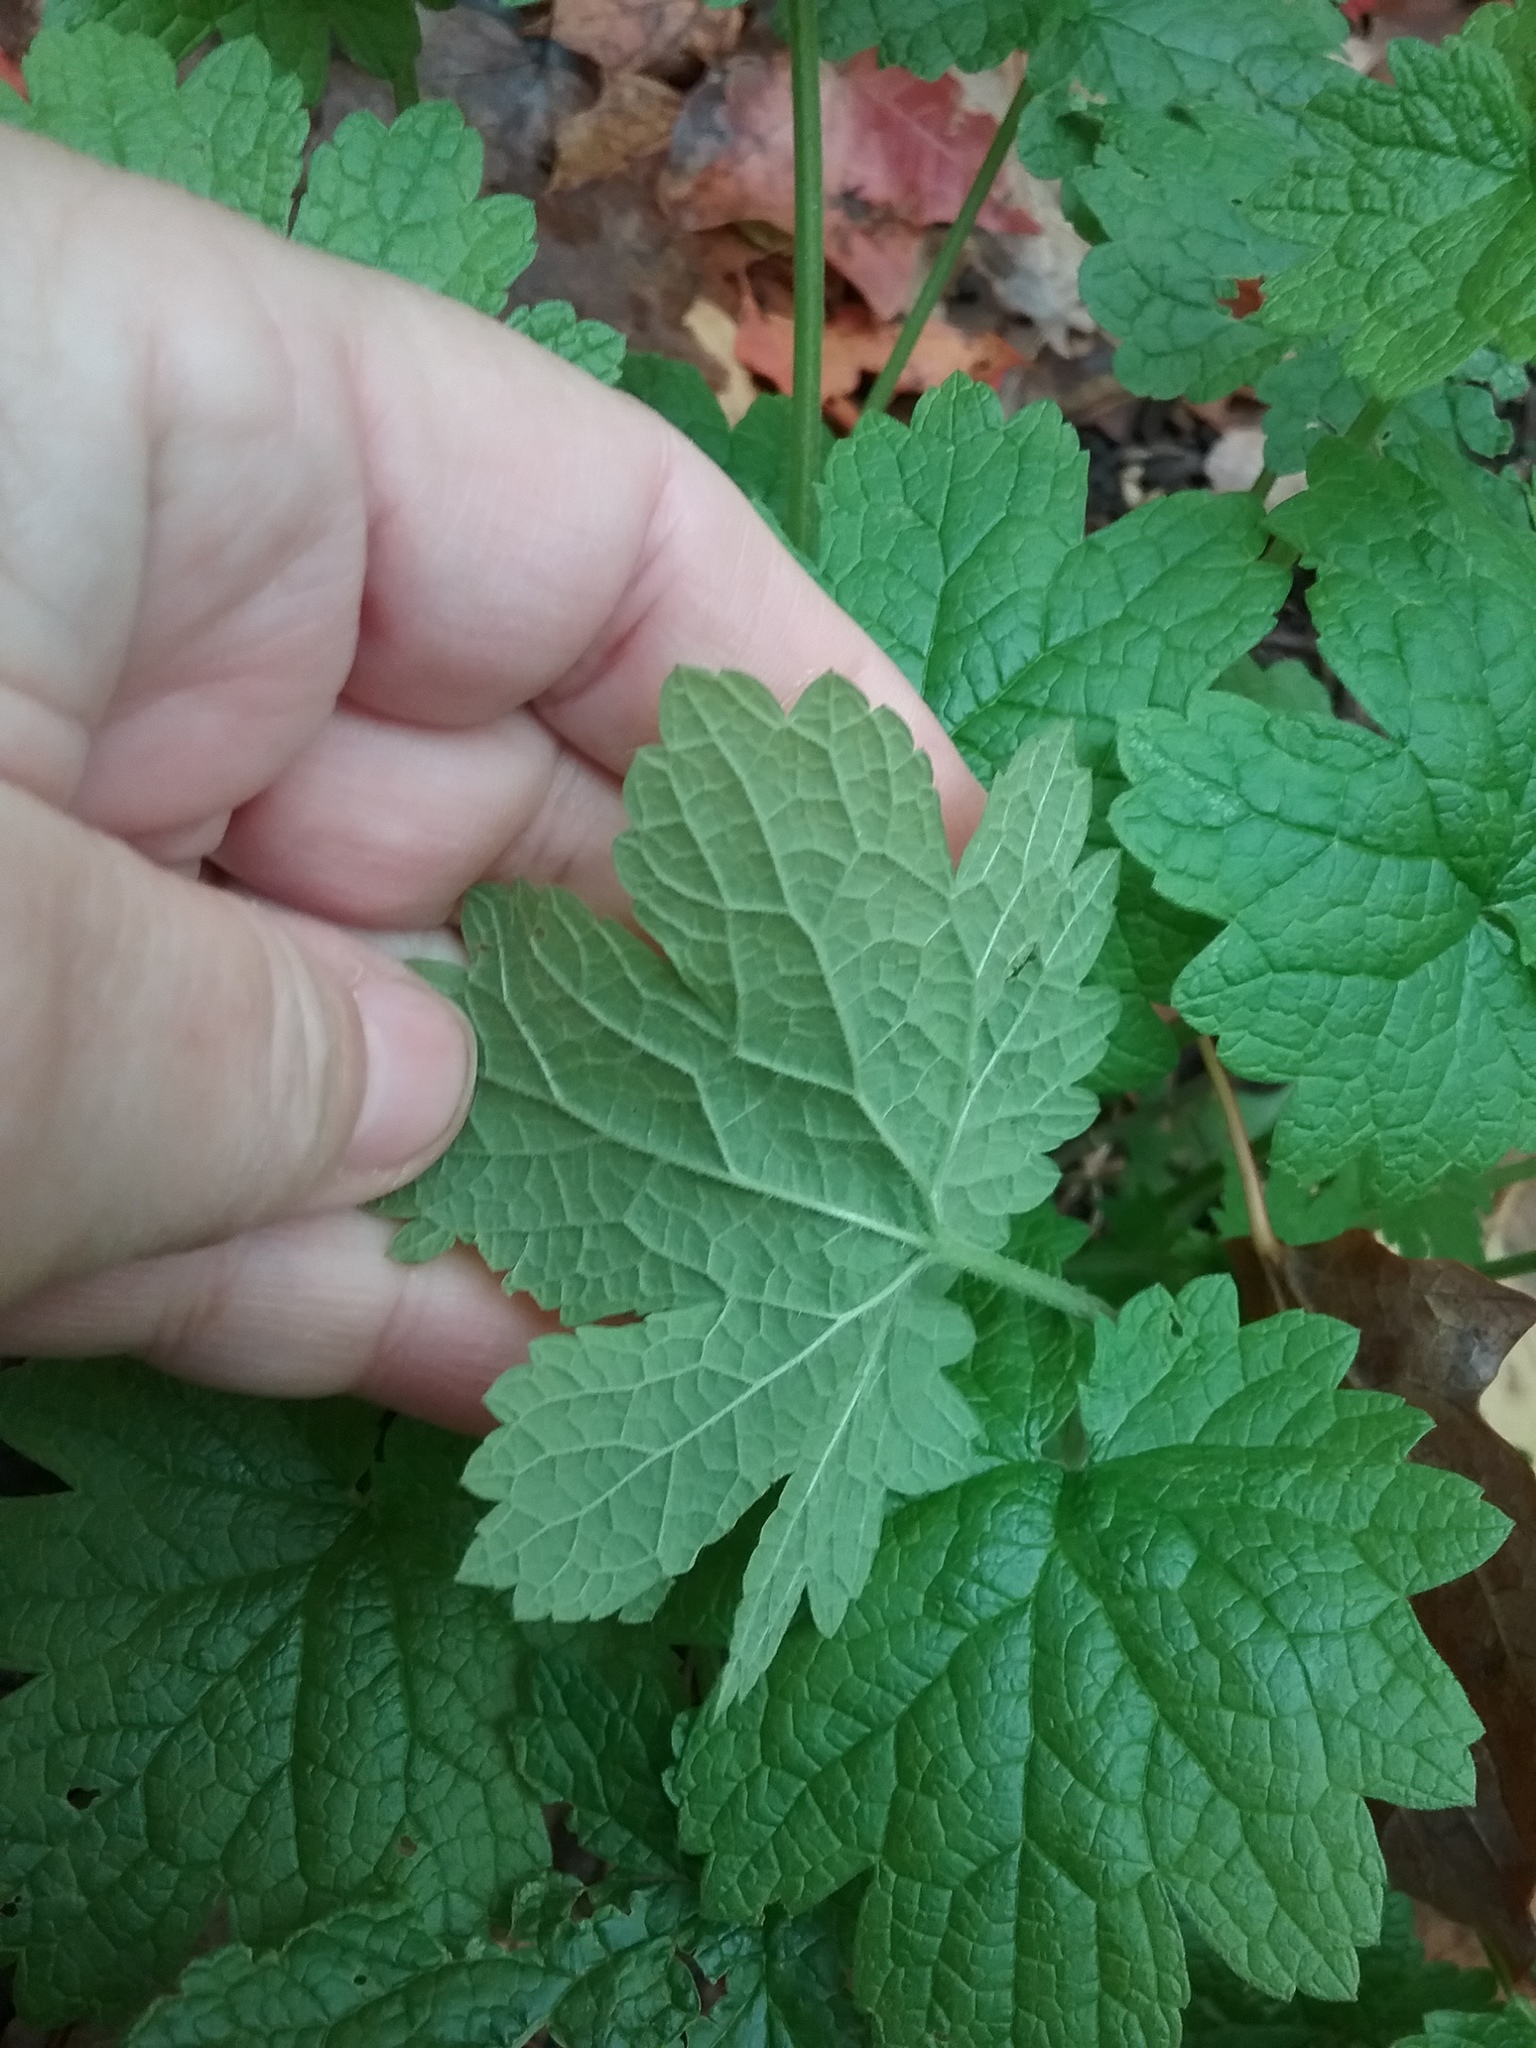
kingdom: Plantae
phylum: Tracheophyta
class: Magnoliopsida
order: Lamiales
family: Lamiaceae
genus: Leonurus
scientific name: Leonurus cardiaca
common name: Motherwort
